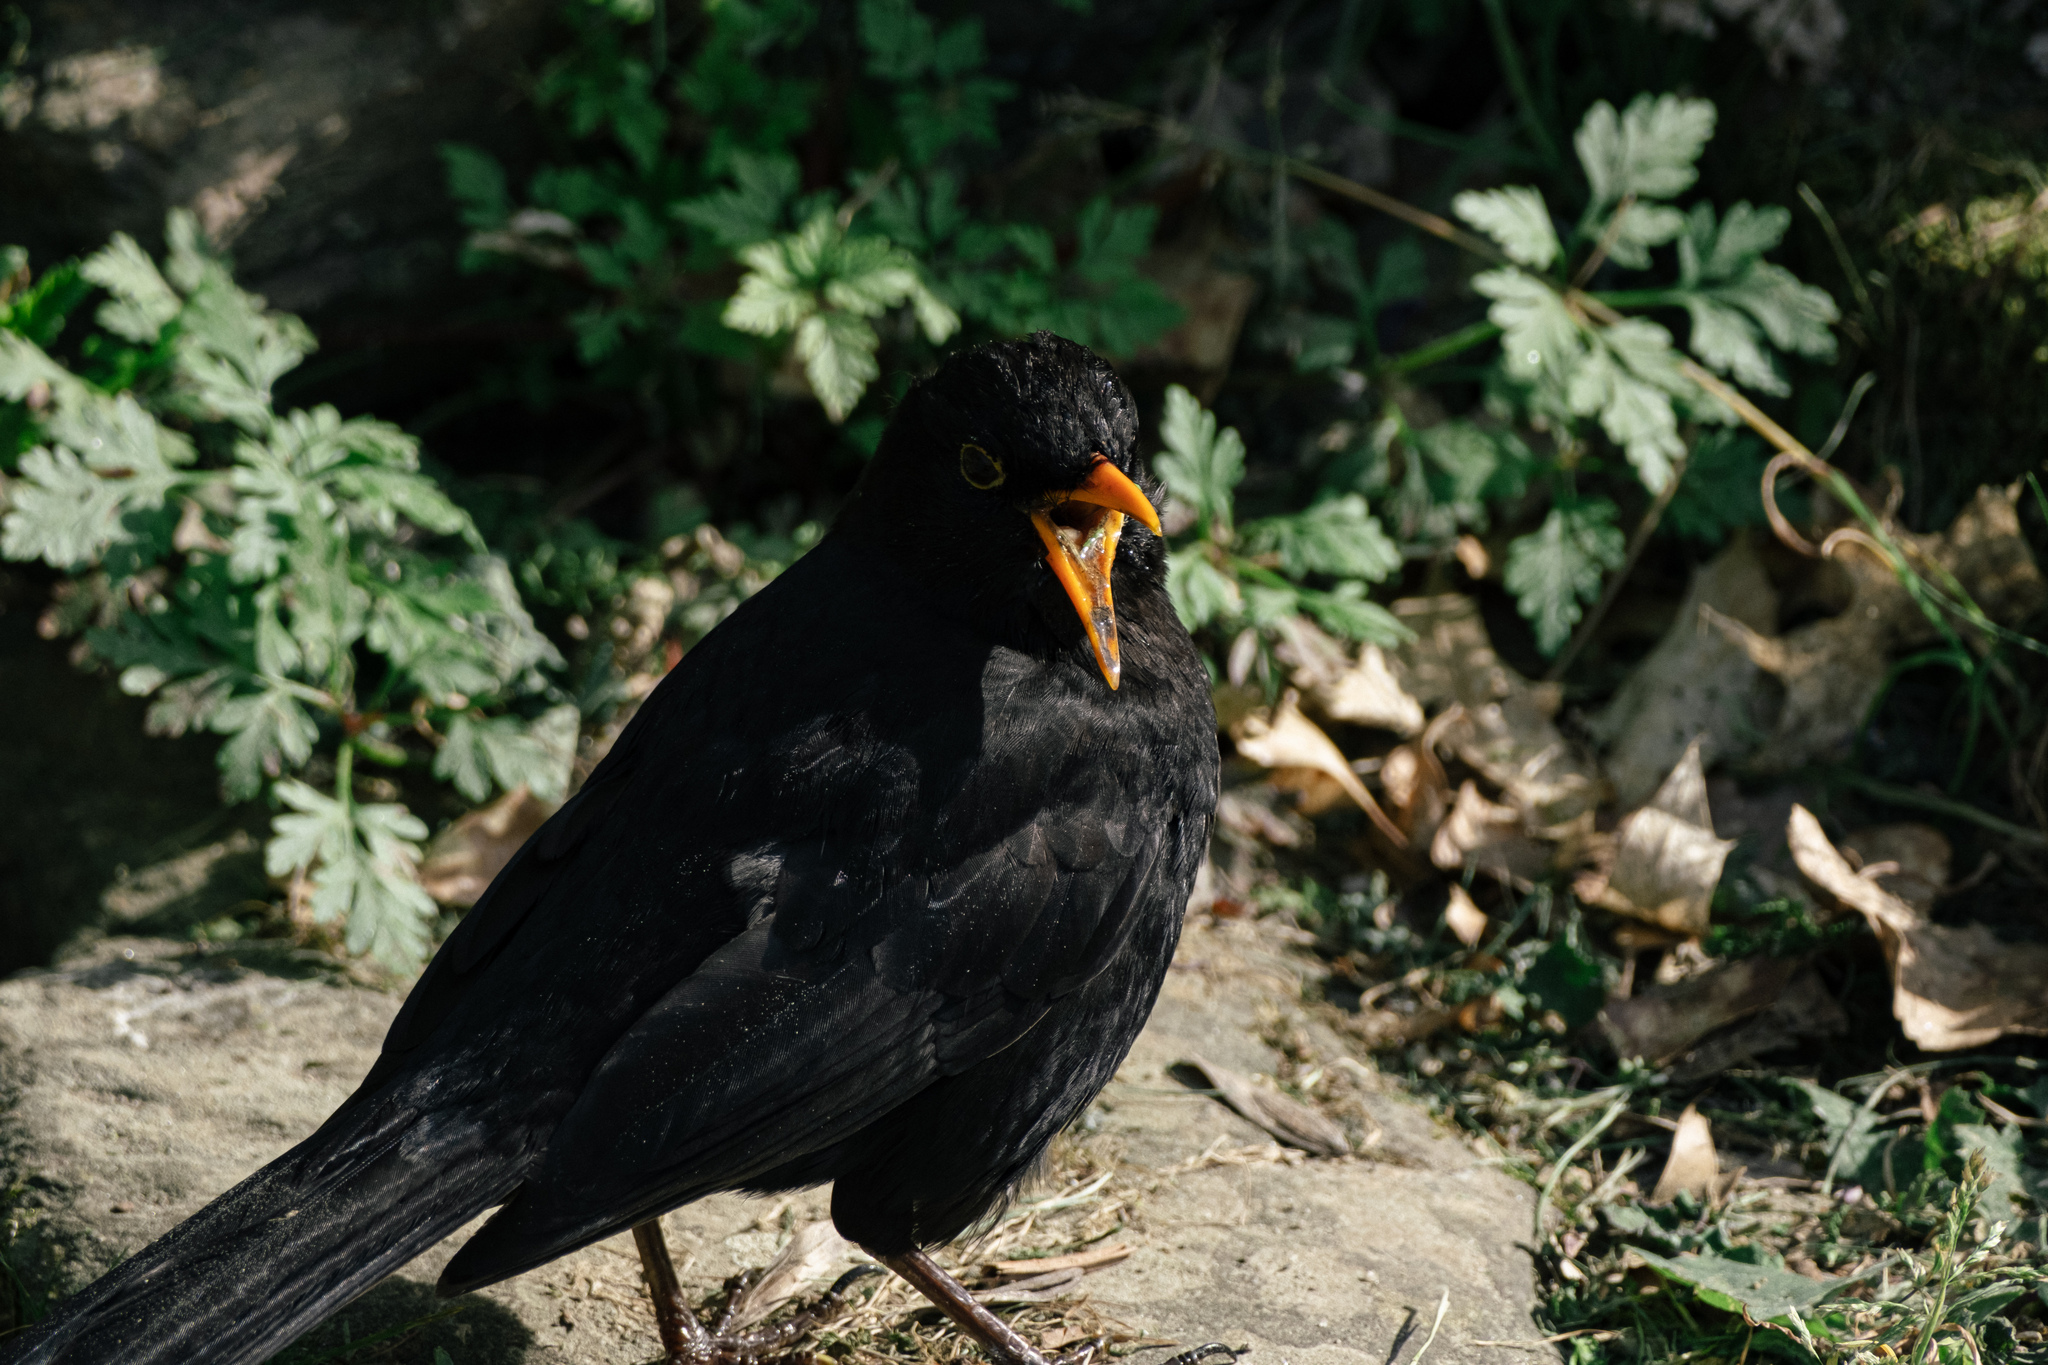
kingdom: Animalia
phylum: Chordata
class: Aves
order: Passeriformes
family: Turdidae
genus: Turdus
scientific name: Turdus merula
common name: Common blackbird
